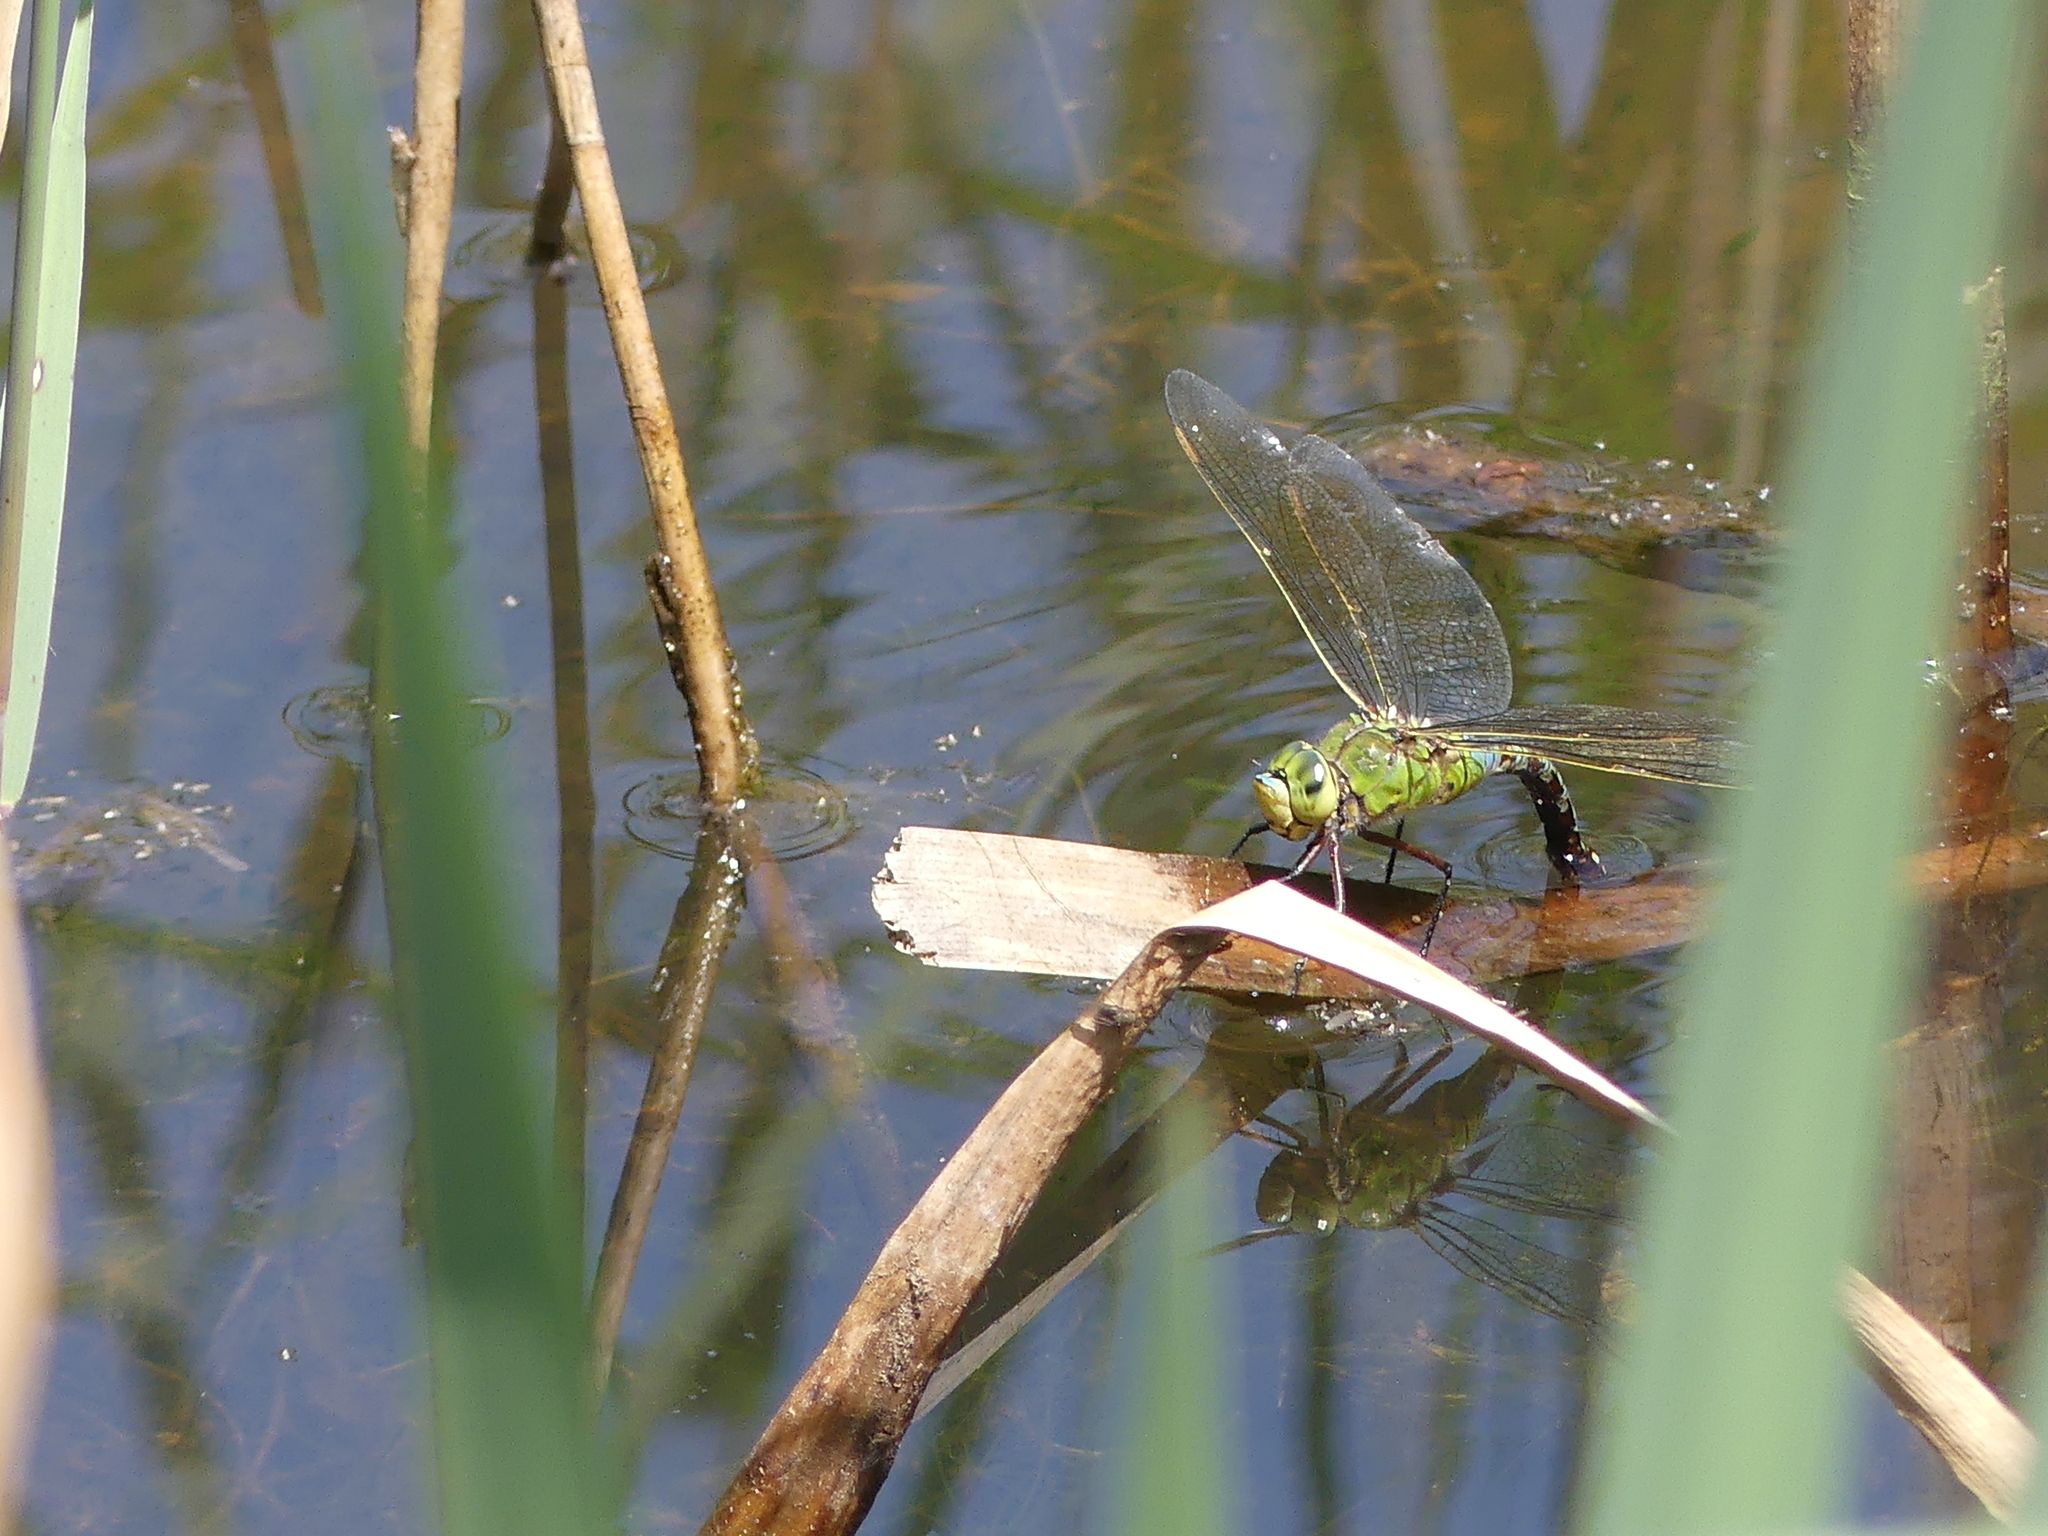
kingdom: Animalia
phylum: Arthropoda
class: Insecta
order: Odonata
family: Aeshnidae
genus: Anax
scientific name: Anax imperator
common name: Emperor dragonfly
